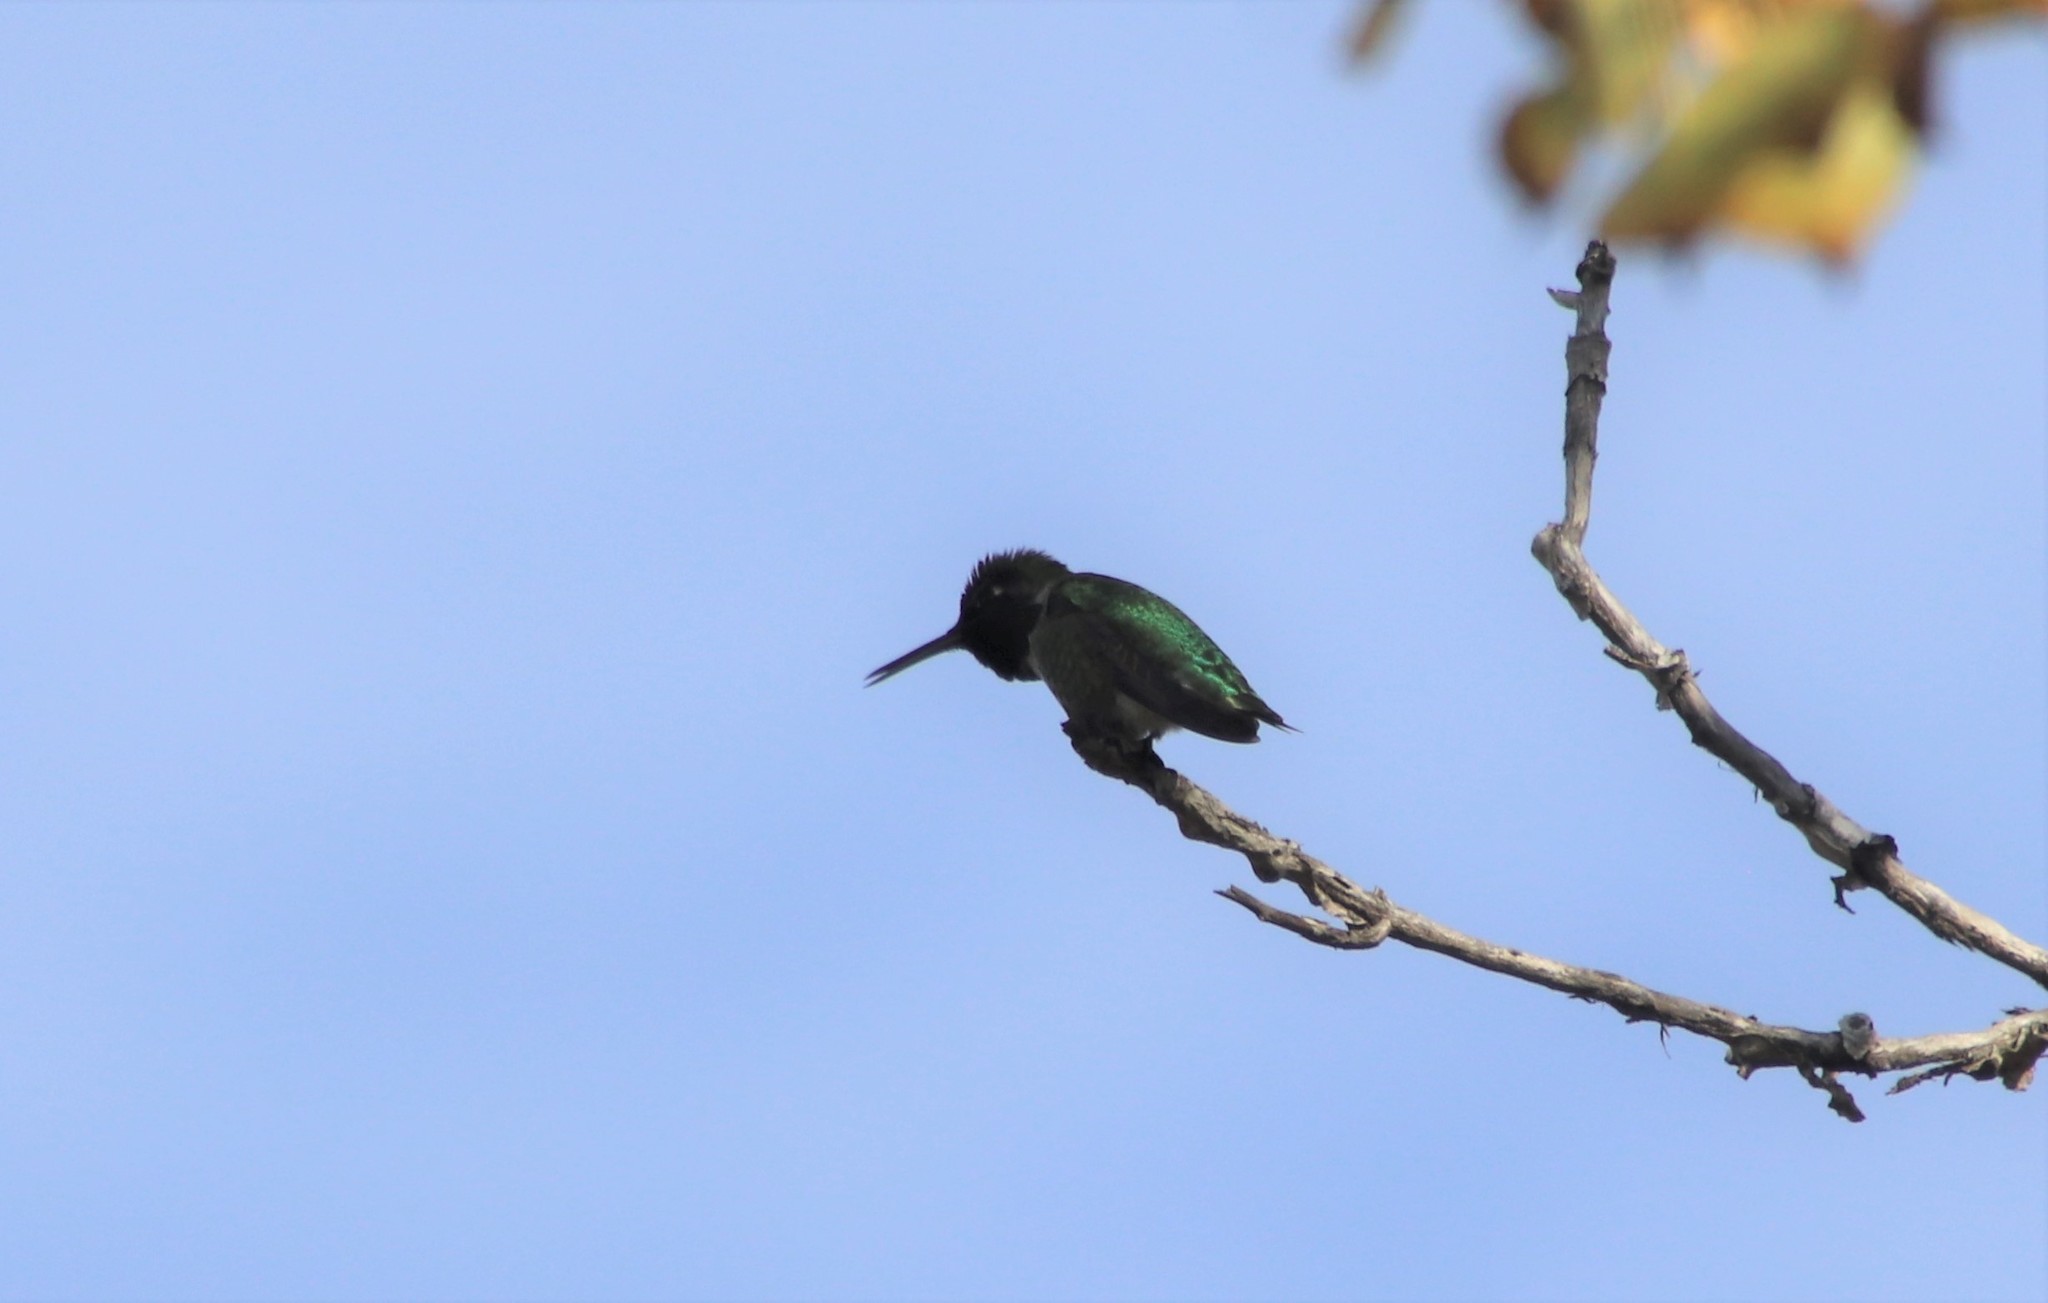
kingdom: Animalia
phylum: Chordata
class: Aves
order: Apodiformes
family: Trochilidae
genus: Calypte
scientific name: Calypte anna
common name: Anna's hummingbird
